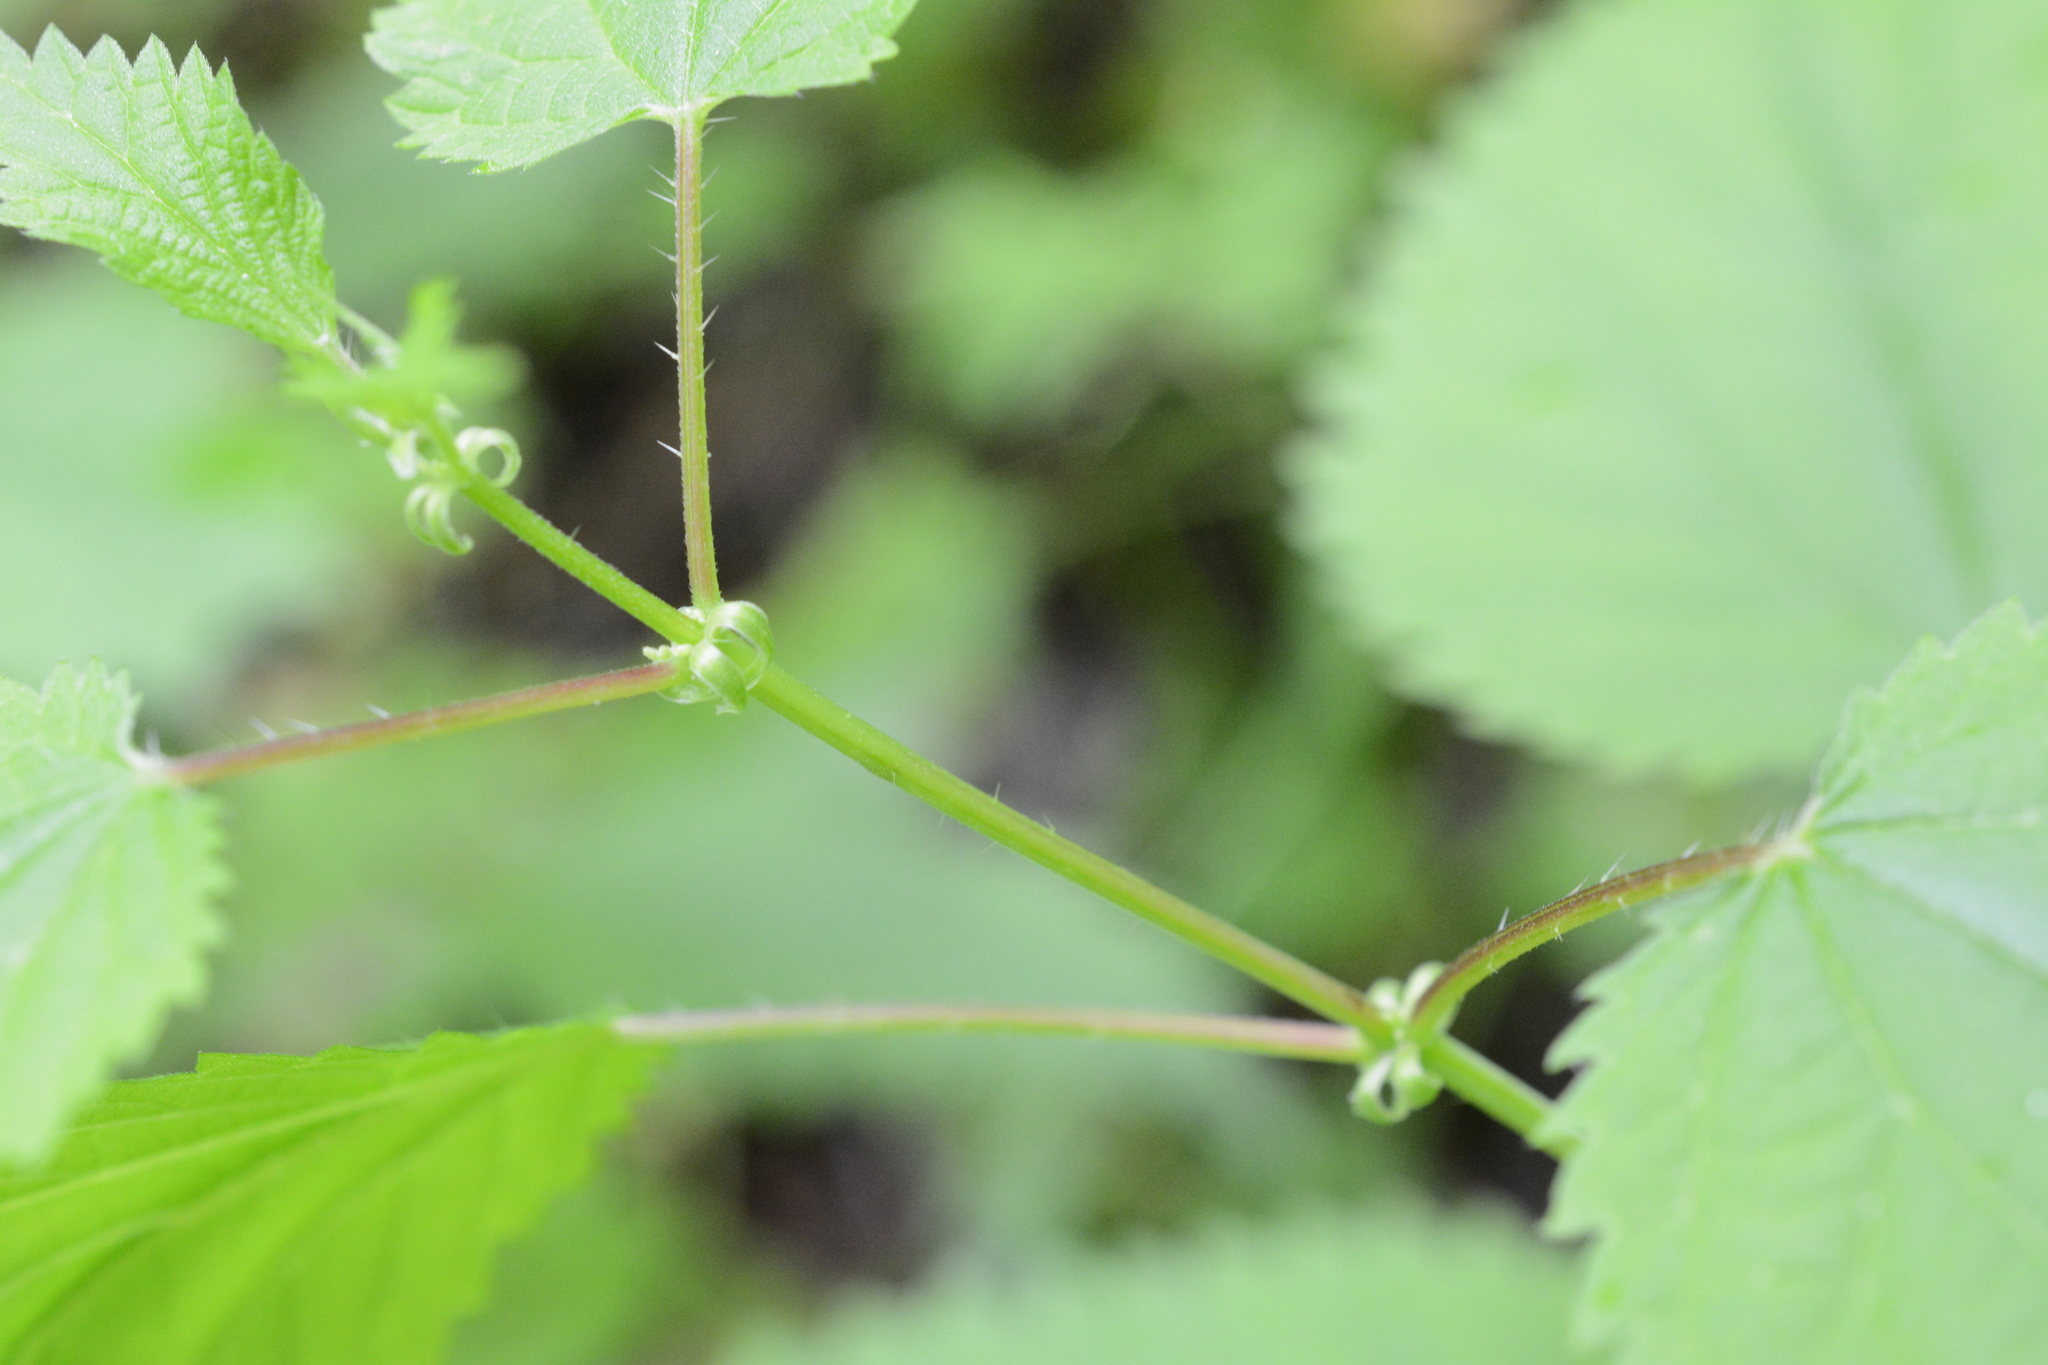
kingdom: Plantae
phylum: Tracheophyta
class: Magnoliopsida
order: Rosales
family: Urticaceae
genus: Urtica
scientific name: Urtica dioica
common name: Common nettle
